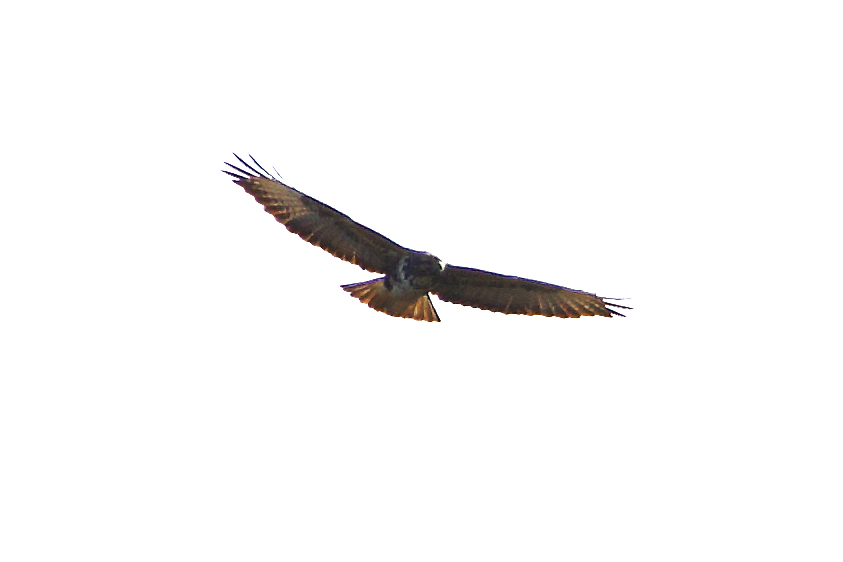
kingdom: Animalia
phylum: Chordata
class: Aves
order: Accipitriformes
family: Accipitridae
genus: Buteo
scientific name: Buteo buteo
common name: Common buzzard
